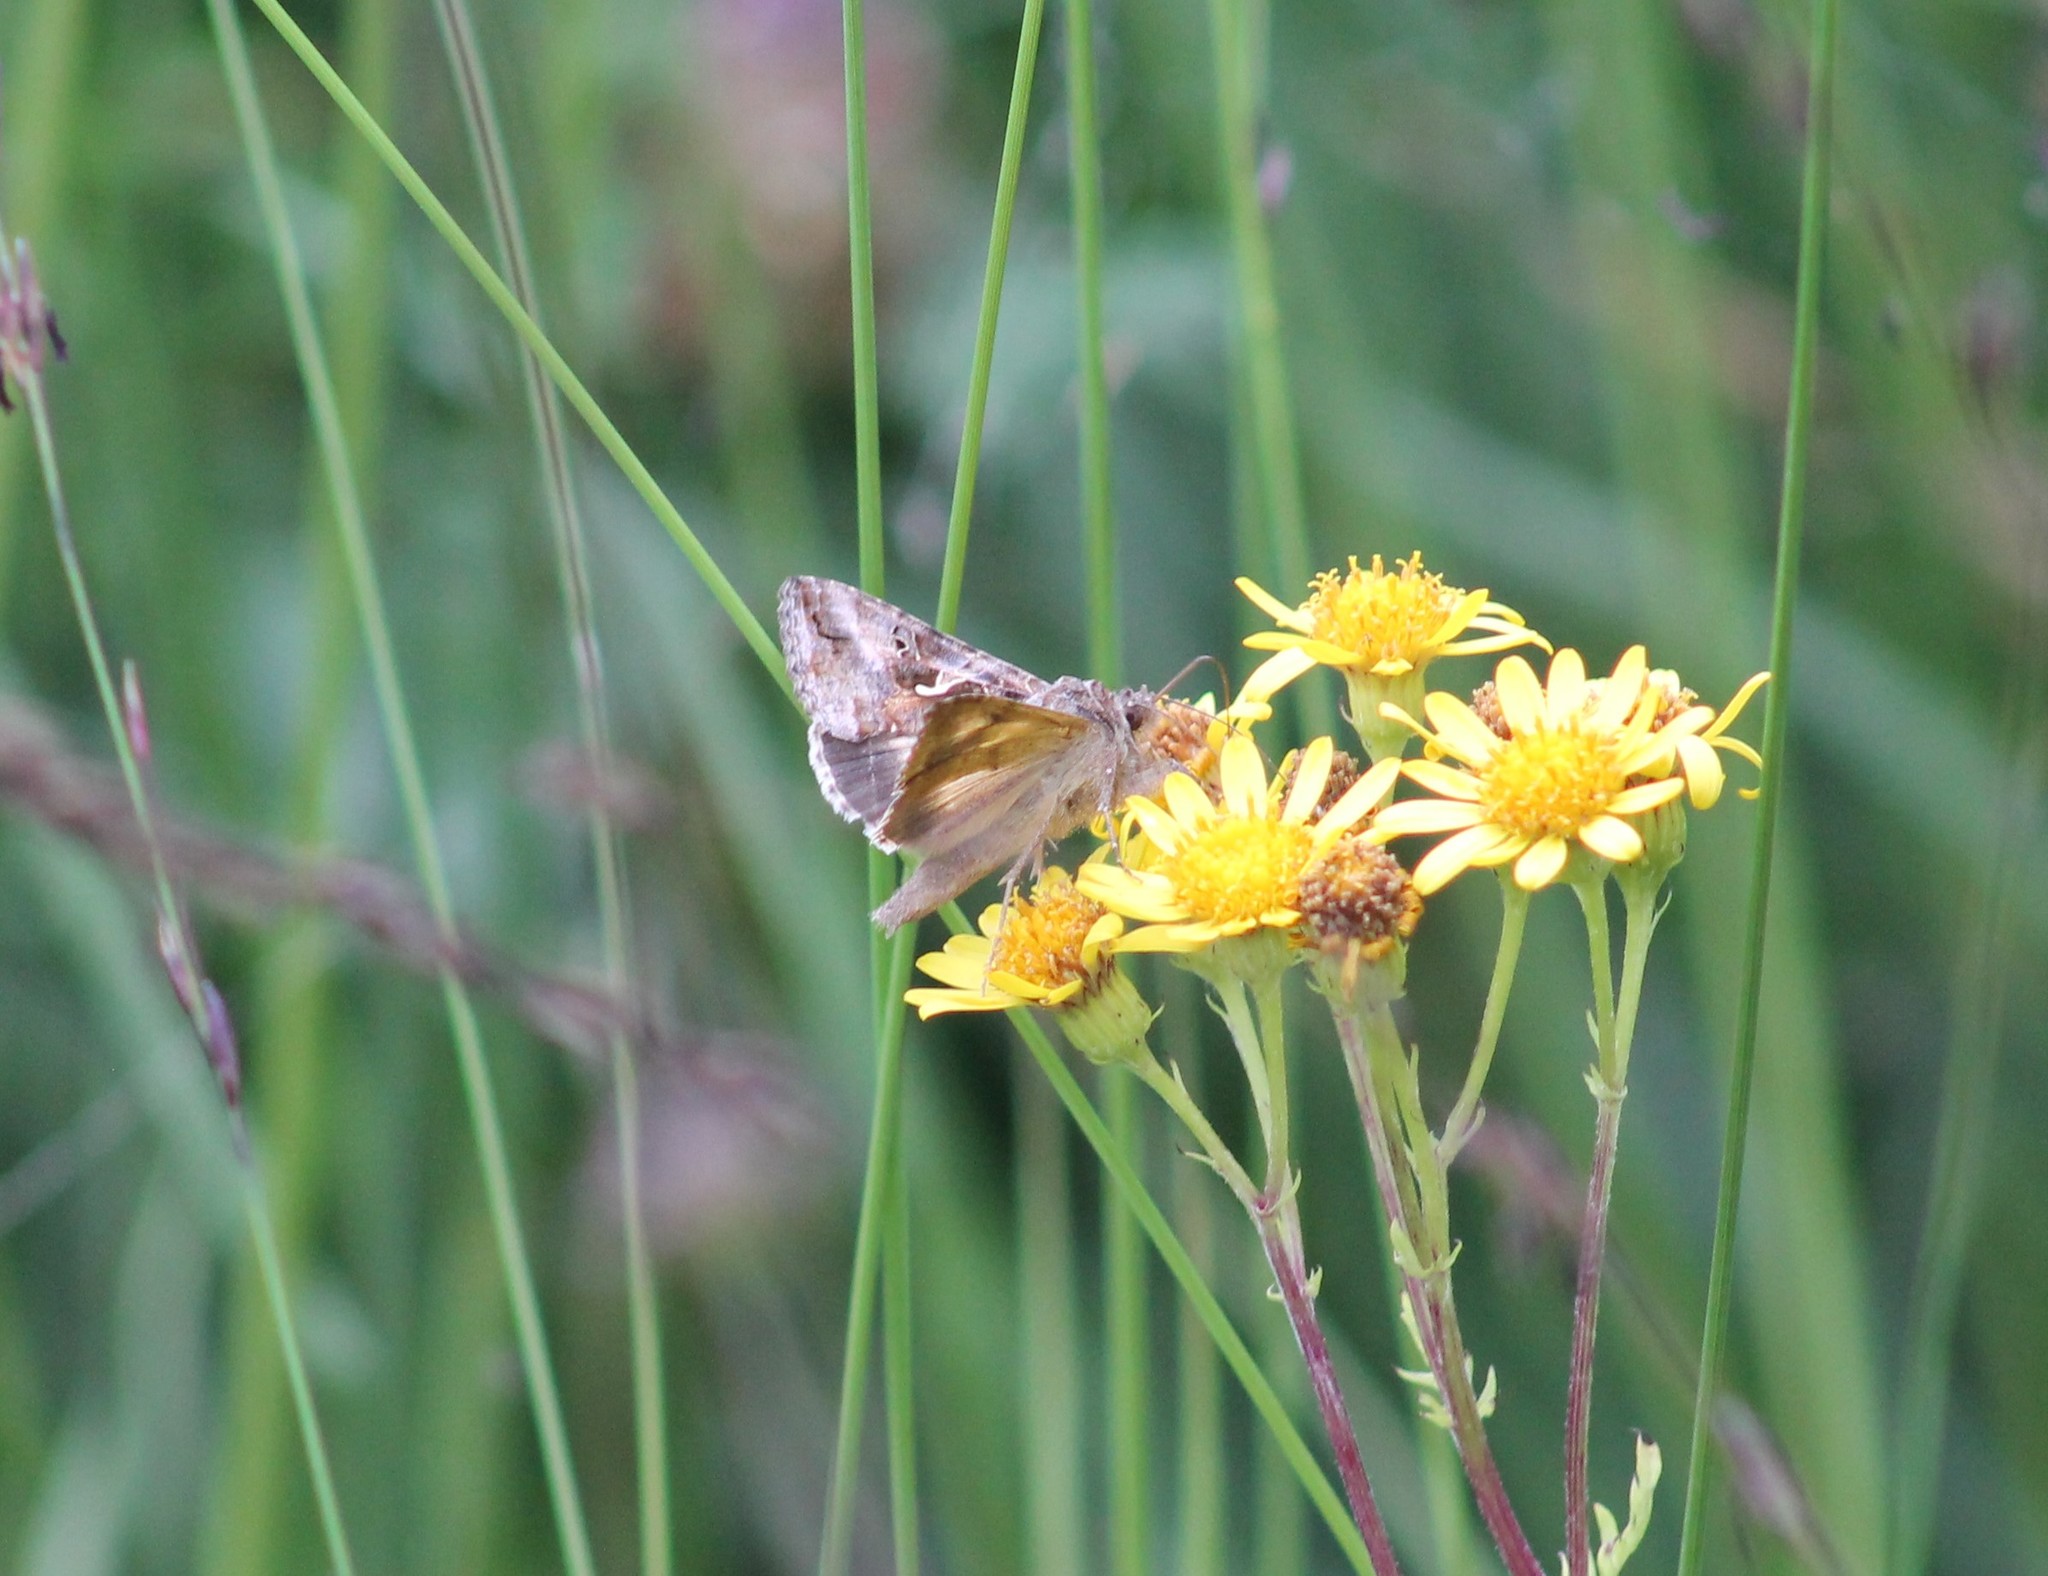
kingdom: Animalia
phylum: Arthropoda
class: Insecta
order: Lepidoptera
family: Noctuidae
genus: Autographa
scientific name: Autographa gamma
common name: Silver y
